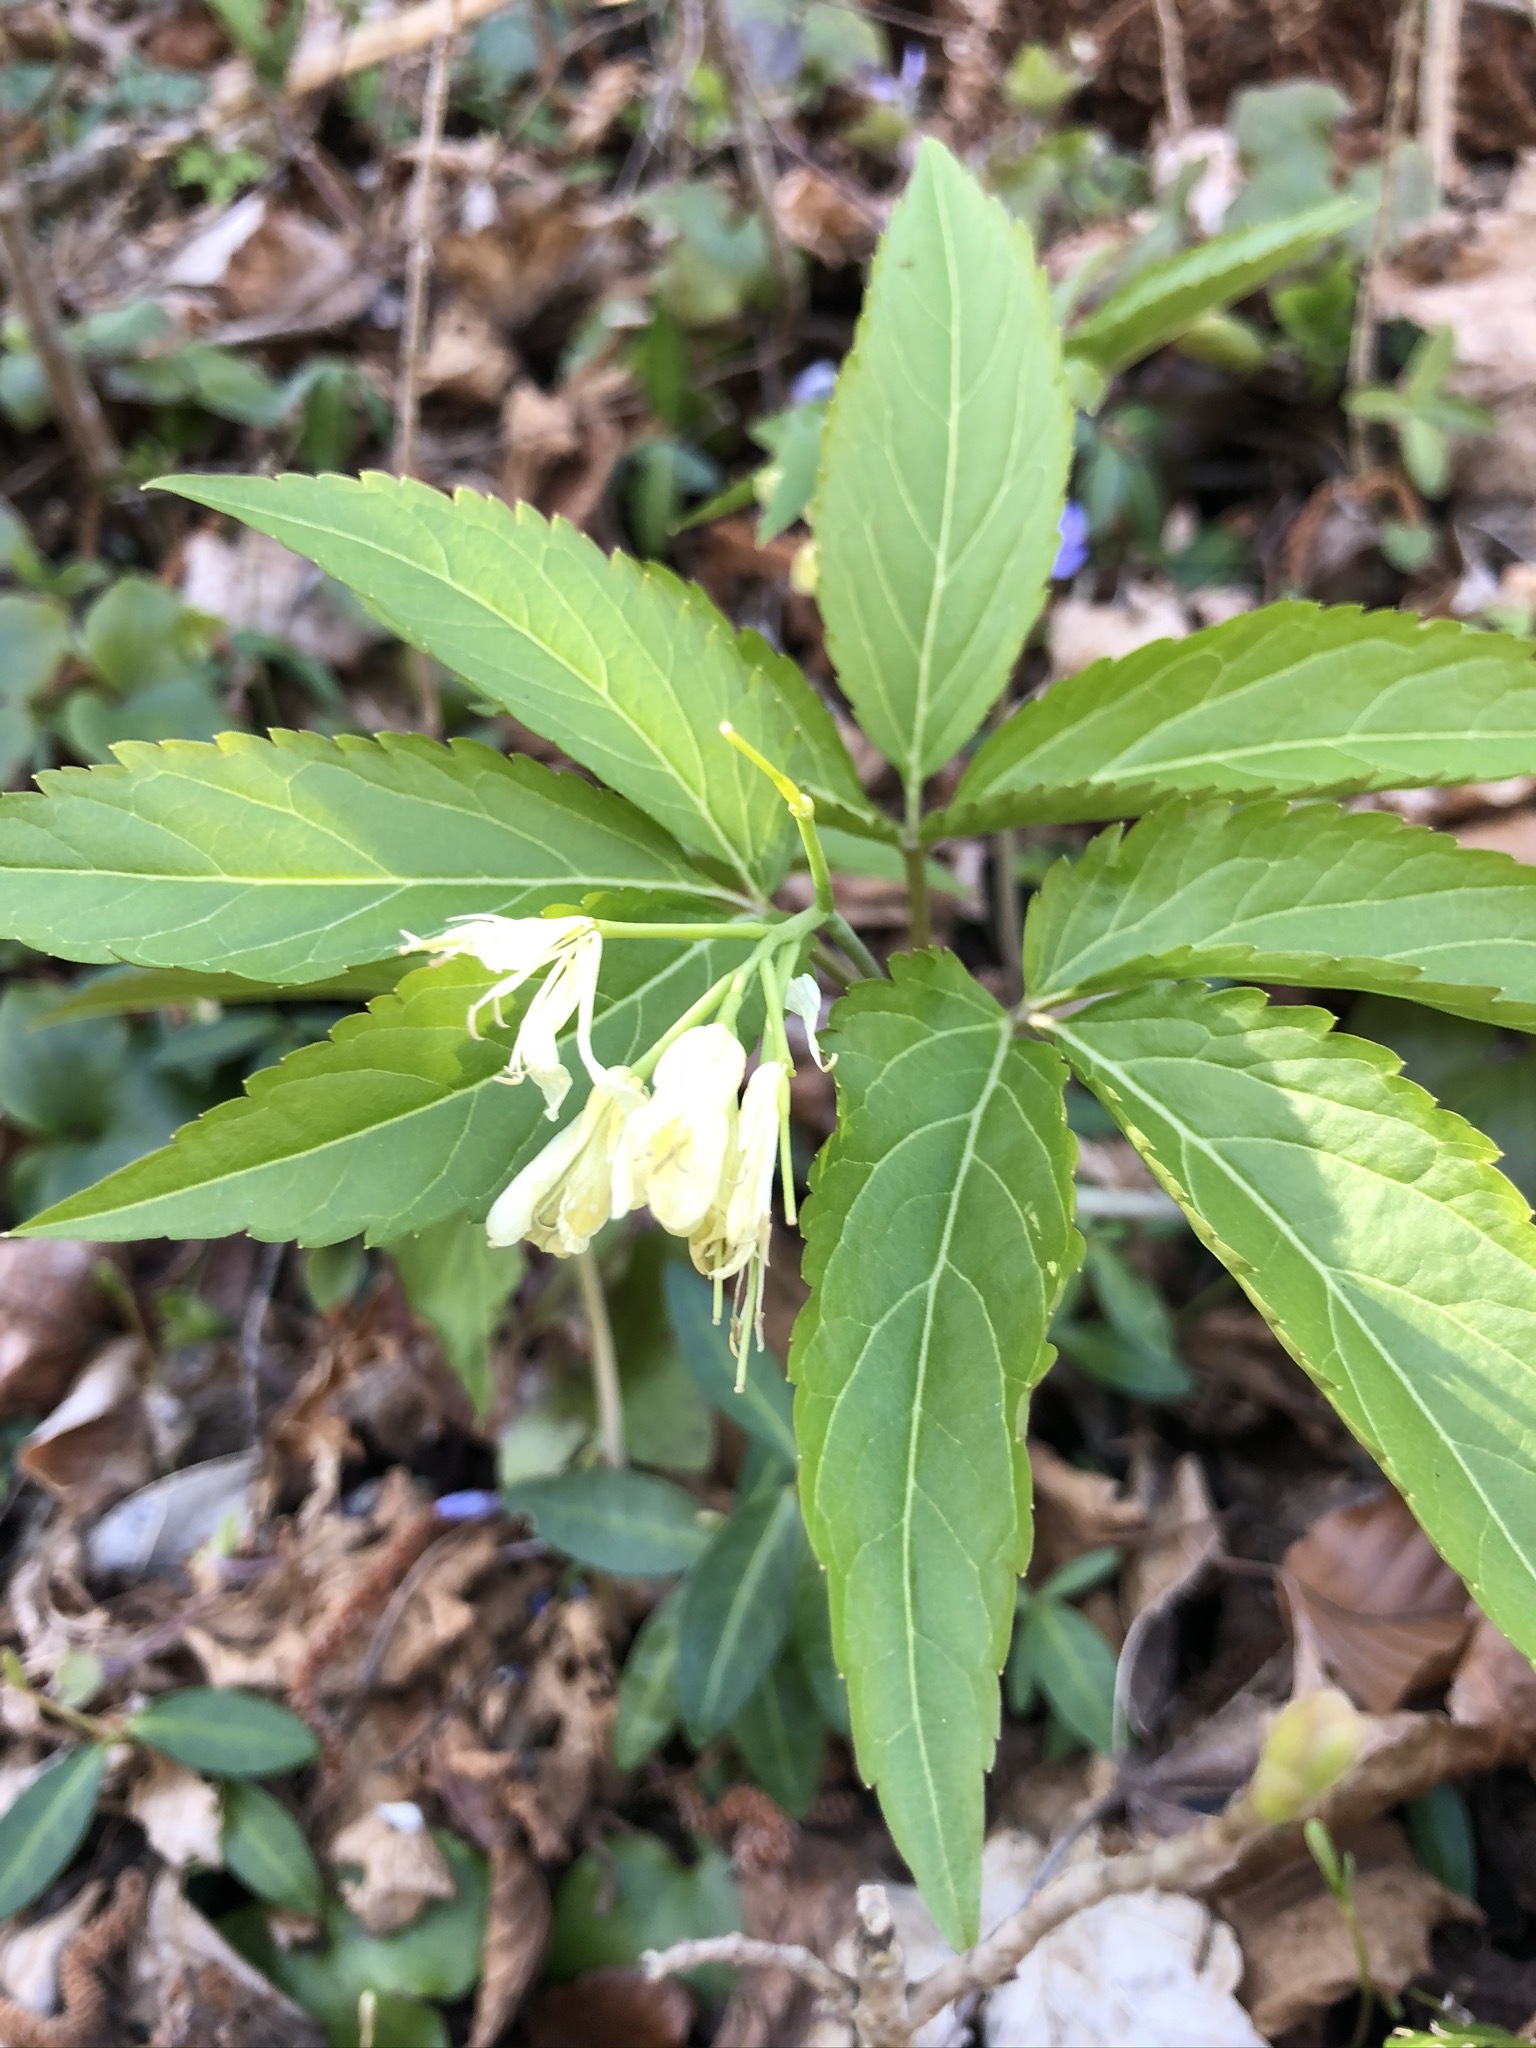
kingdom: Plantae
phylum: Tracheophyta
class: Magnoliopsida
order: Brassicales
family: Brassicaceae
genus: Cardamine
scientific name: Cardamine enneaphyllos
